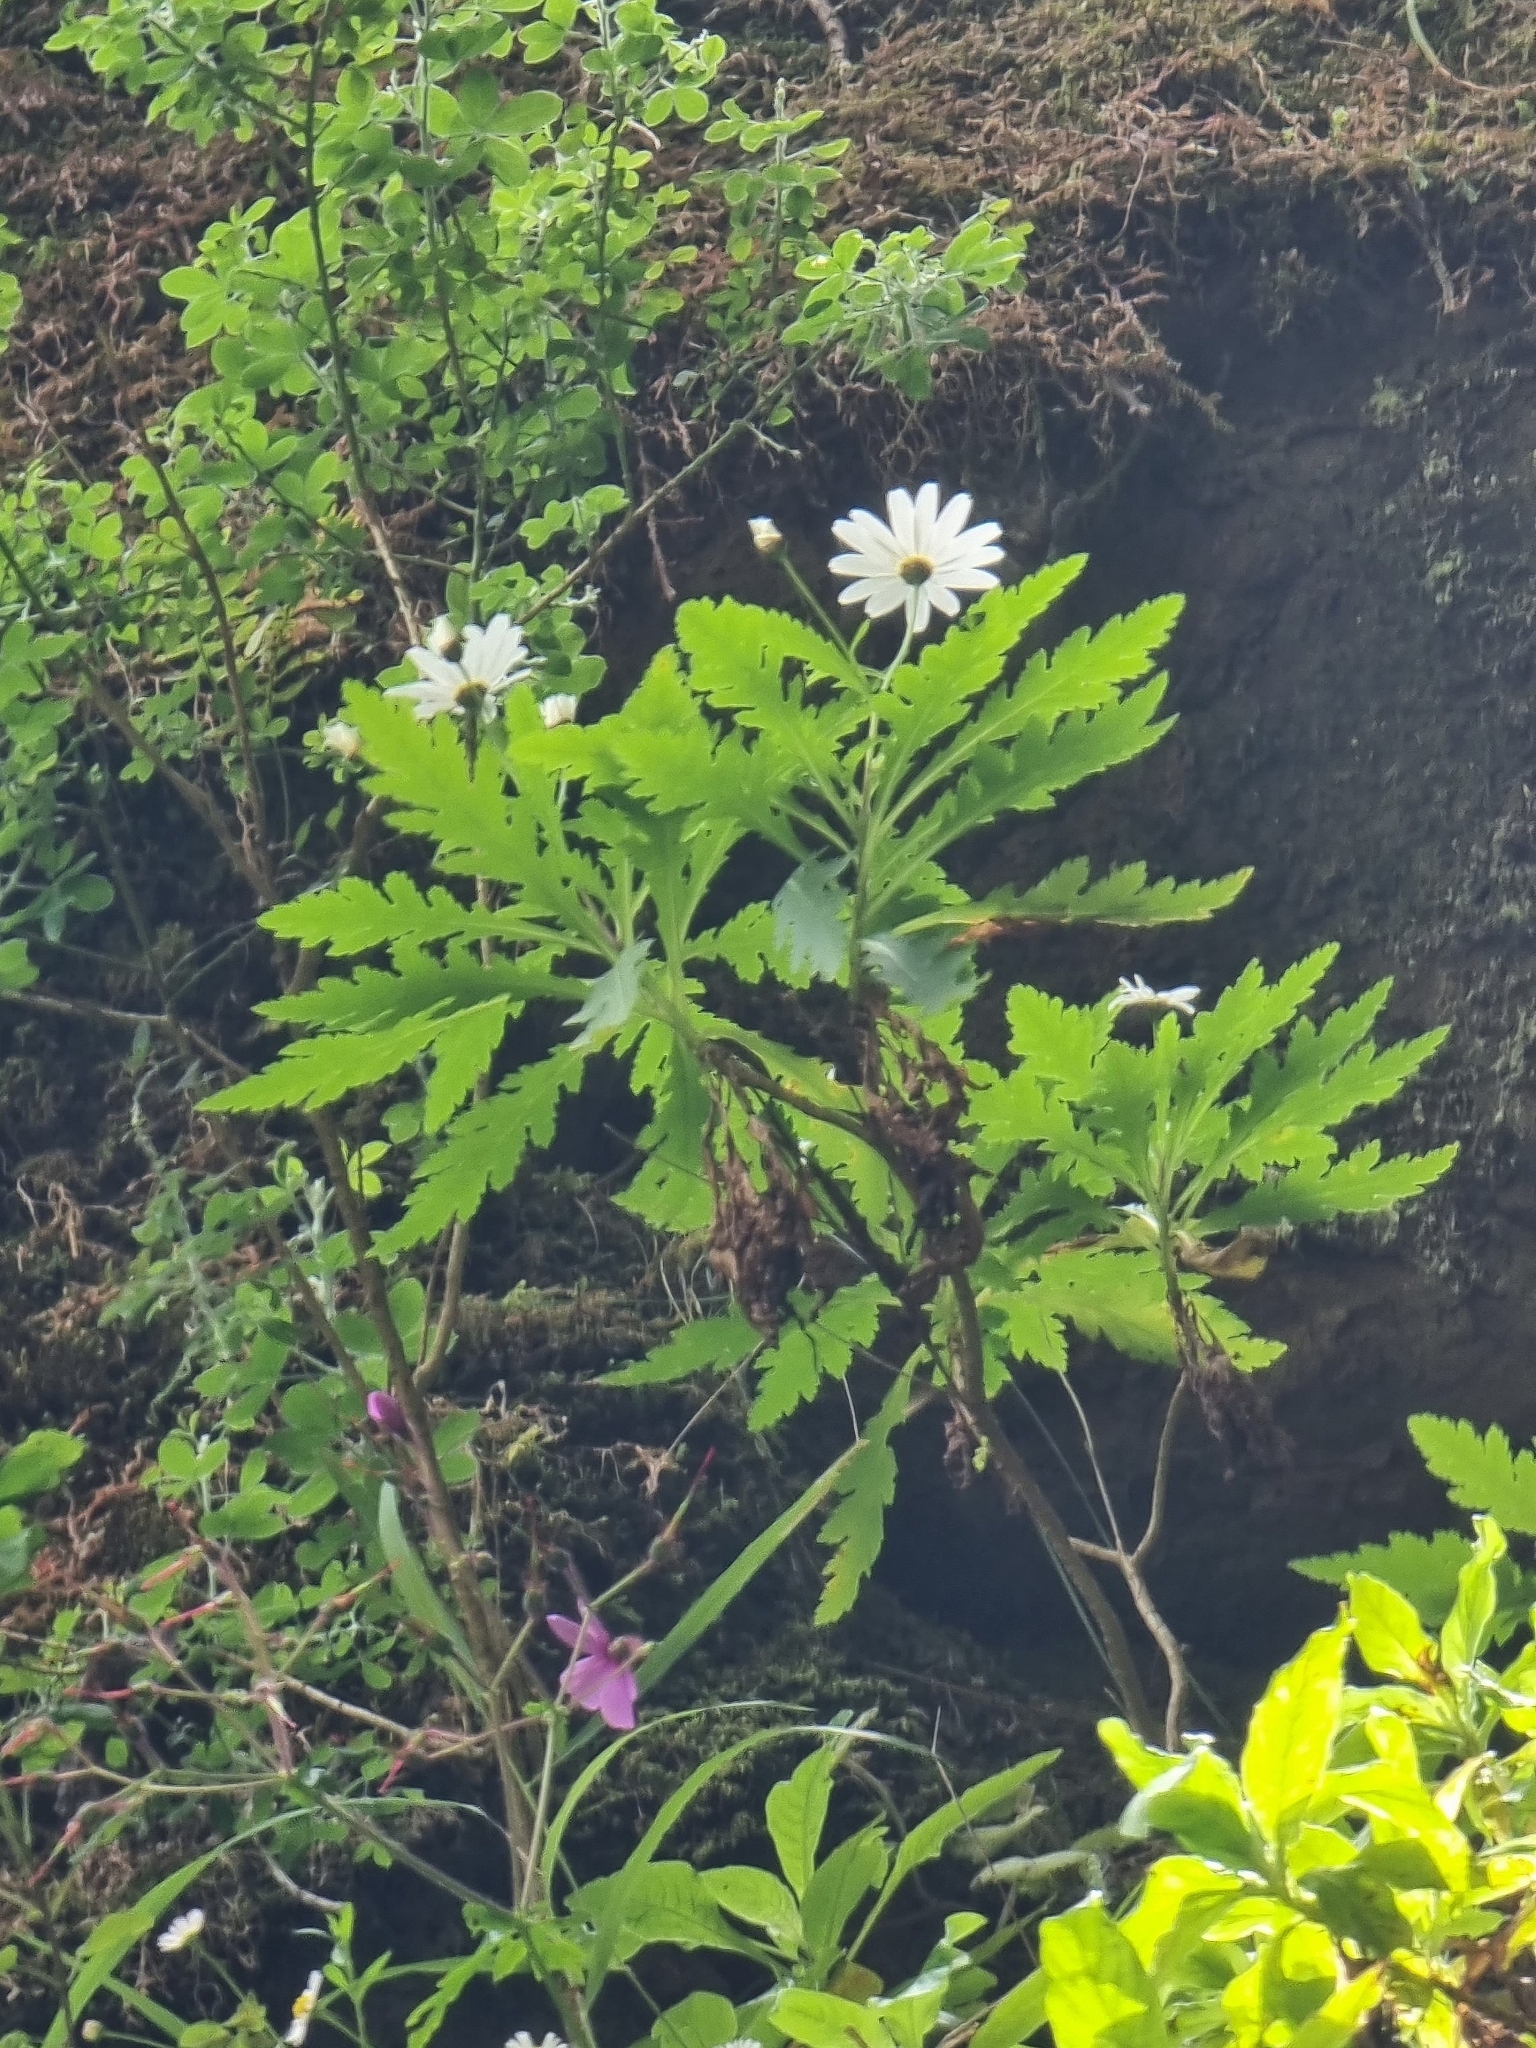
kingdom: Plantae
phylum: Tracheophyta
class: Magnoliopsida
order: Asterales
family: Asteraceae
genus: Argyranthemum
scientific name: Argyranthemum pinnatifidum
